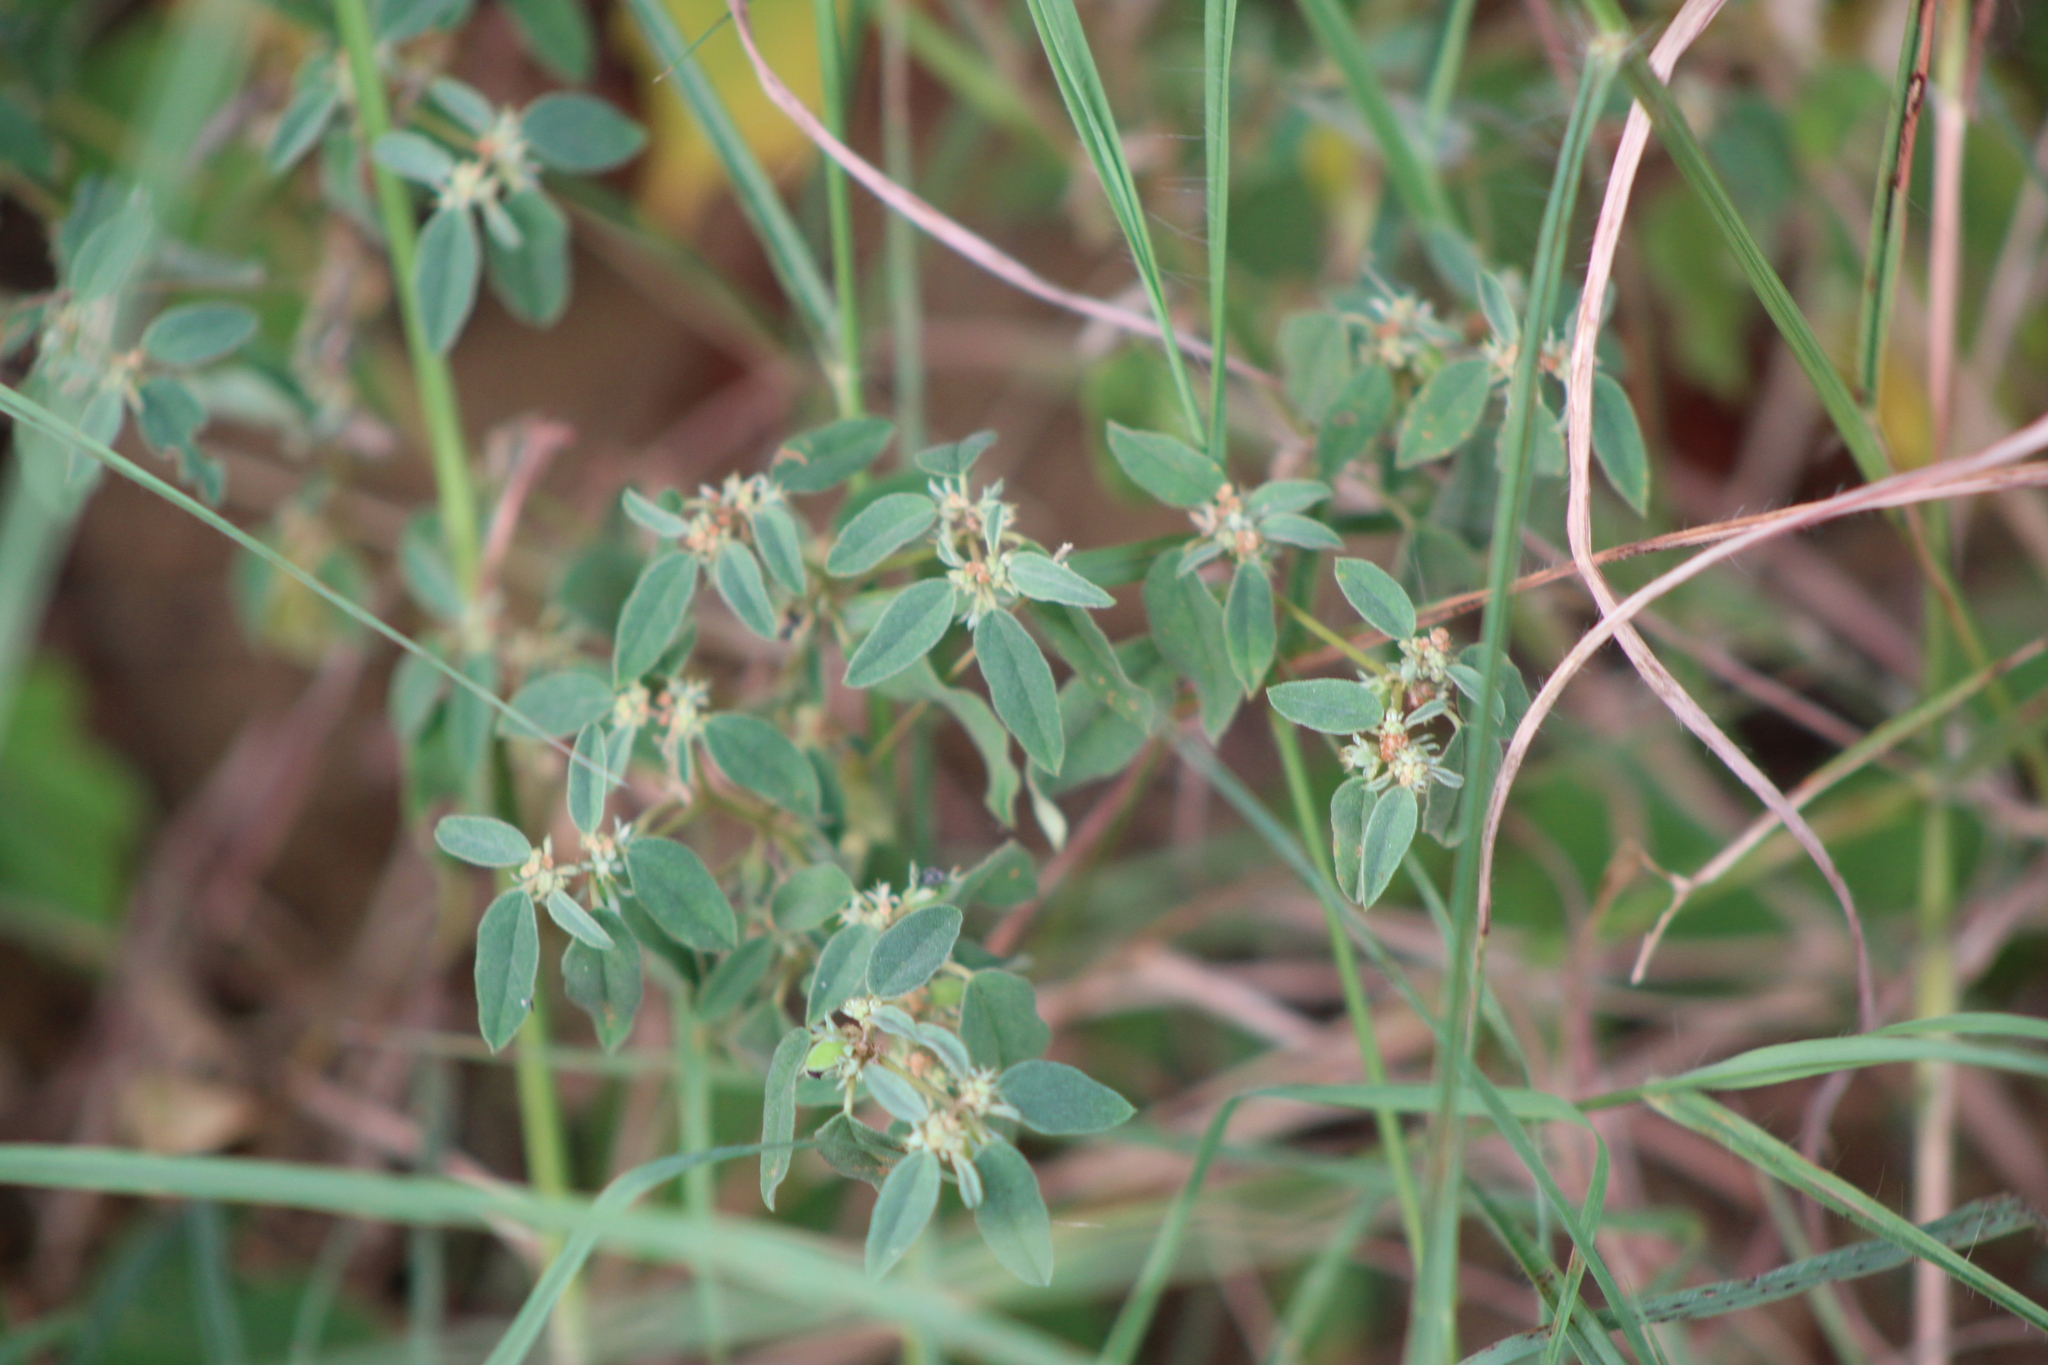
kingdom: Plantae
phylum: Tracheophyta
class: Magnoliopsida
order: Malpighiales
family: Euphorbiaceae
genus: Croton
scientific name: Croton monanthogynus
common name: One-seed croton
